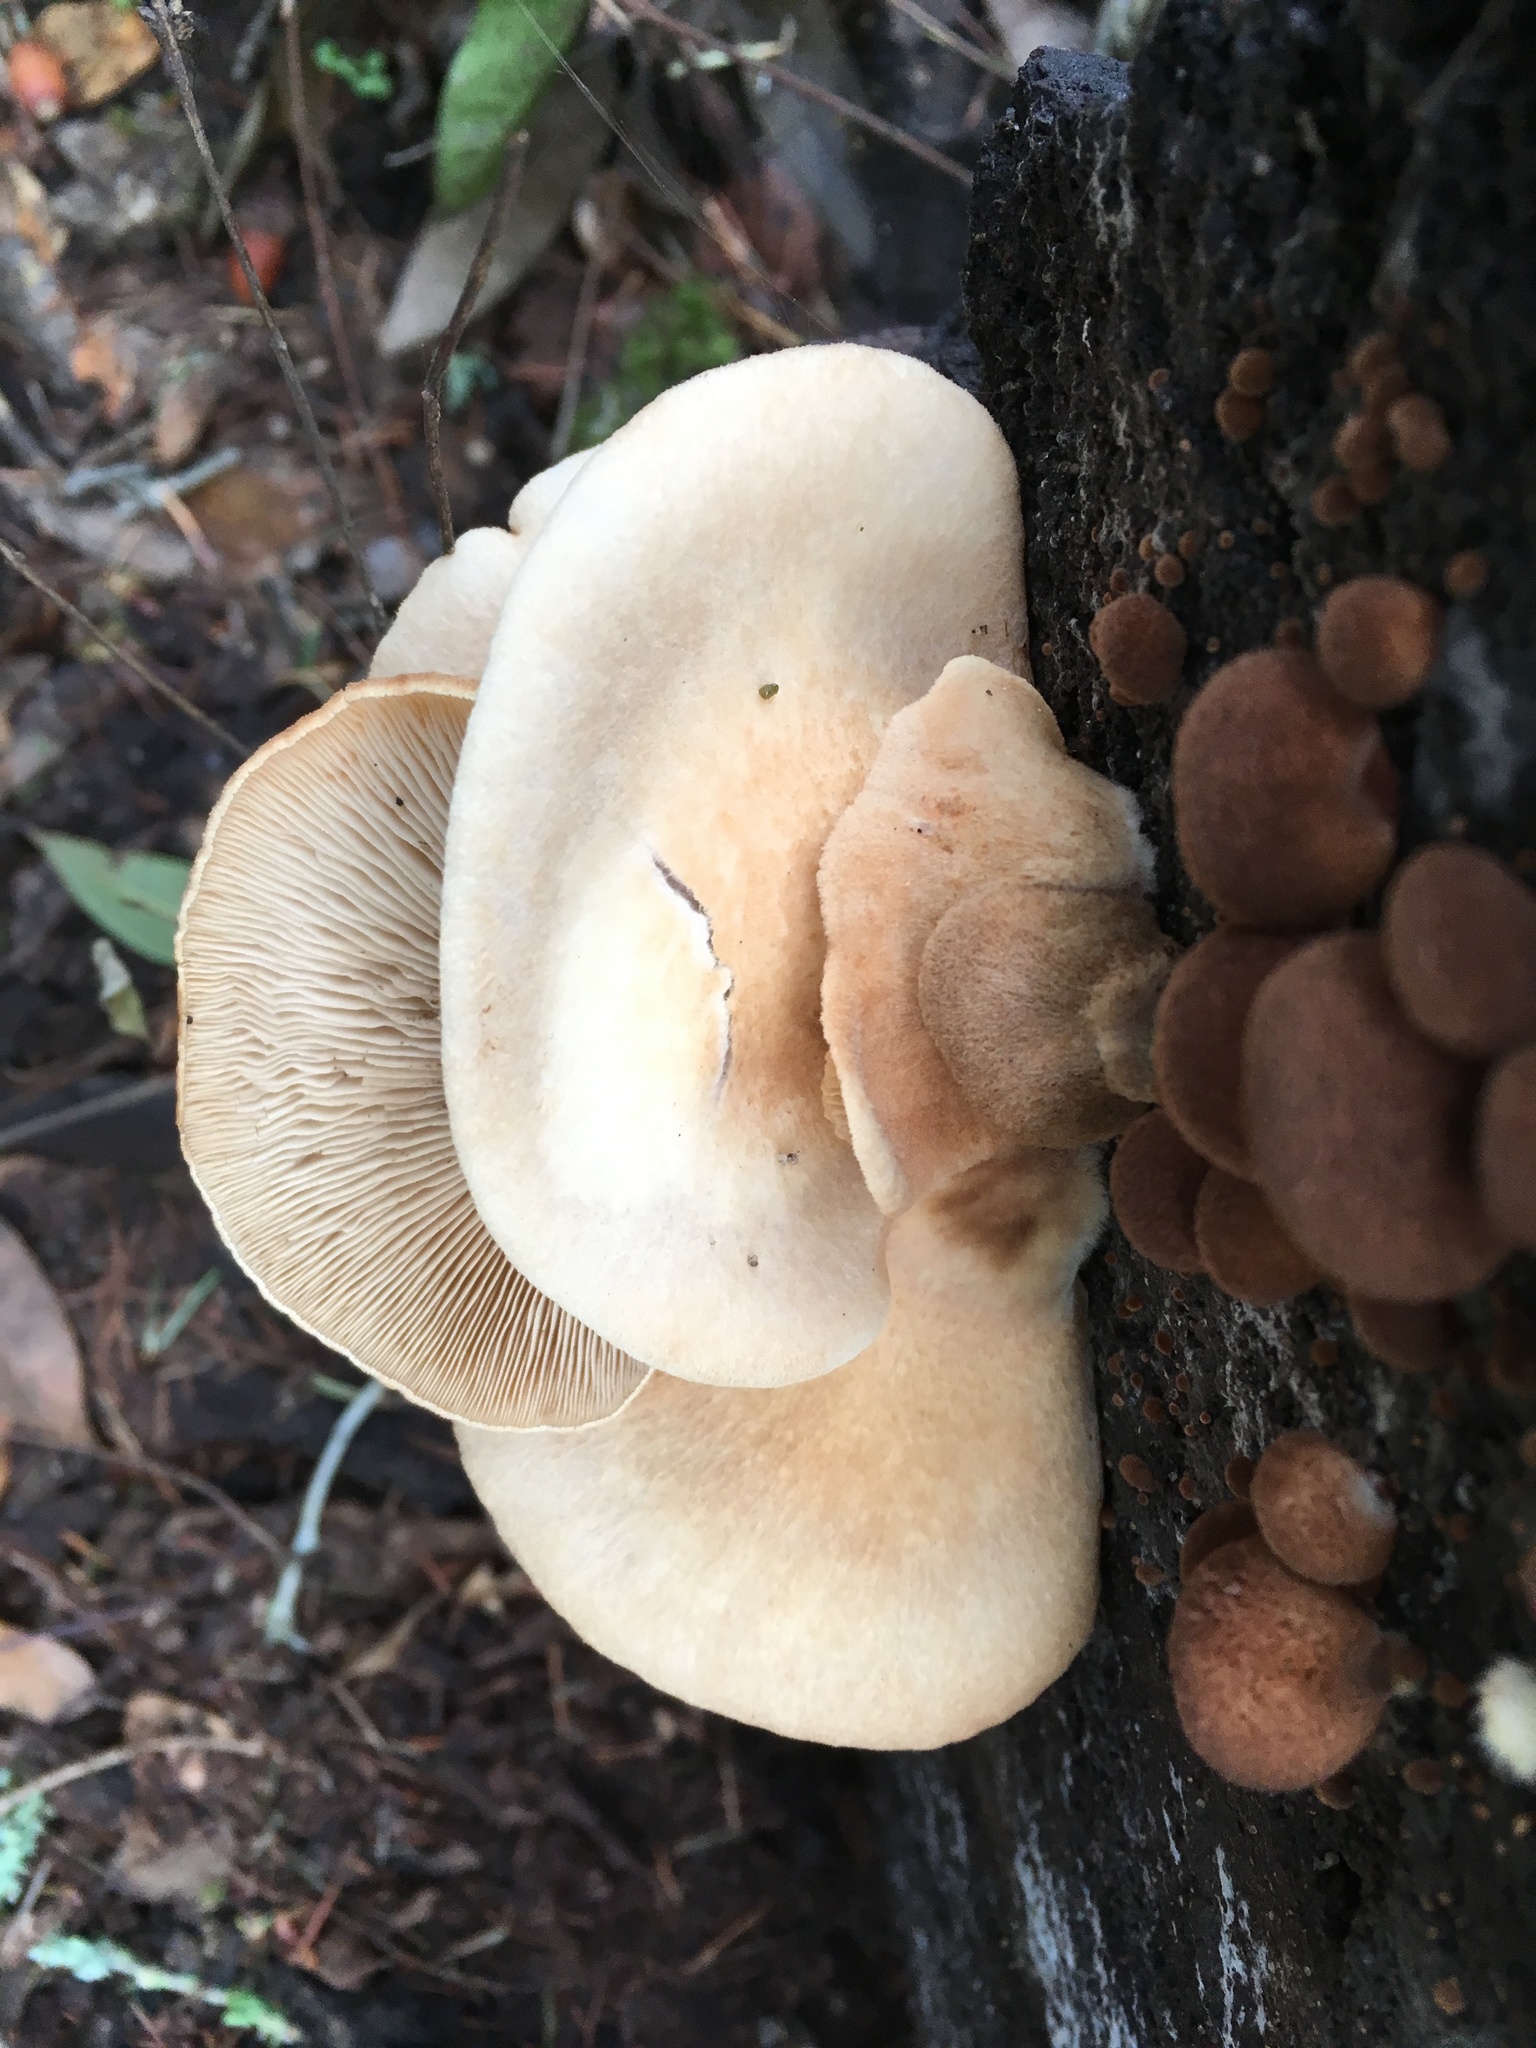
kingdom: Fungi
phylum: Basidiomycota
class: Agaricomycetes
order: Agaricales
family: Crepidotaceae
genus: Crepidotus
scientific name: Crepidotus crocophyllus
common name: Saffron oysterling
